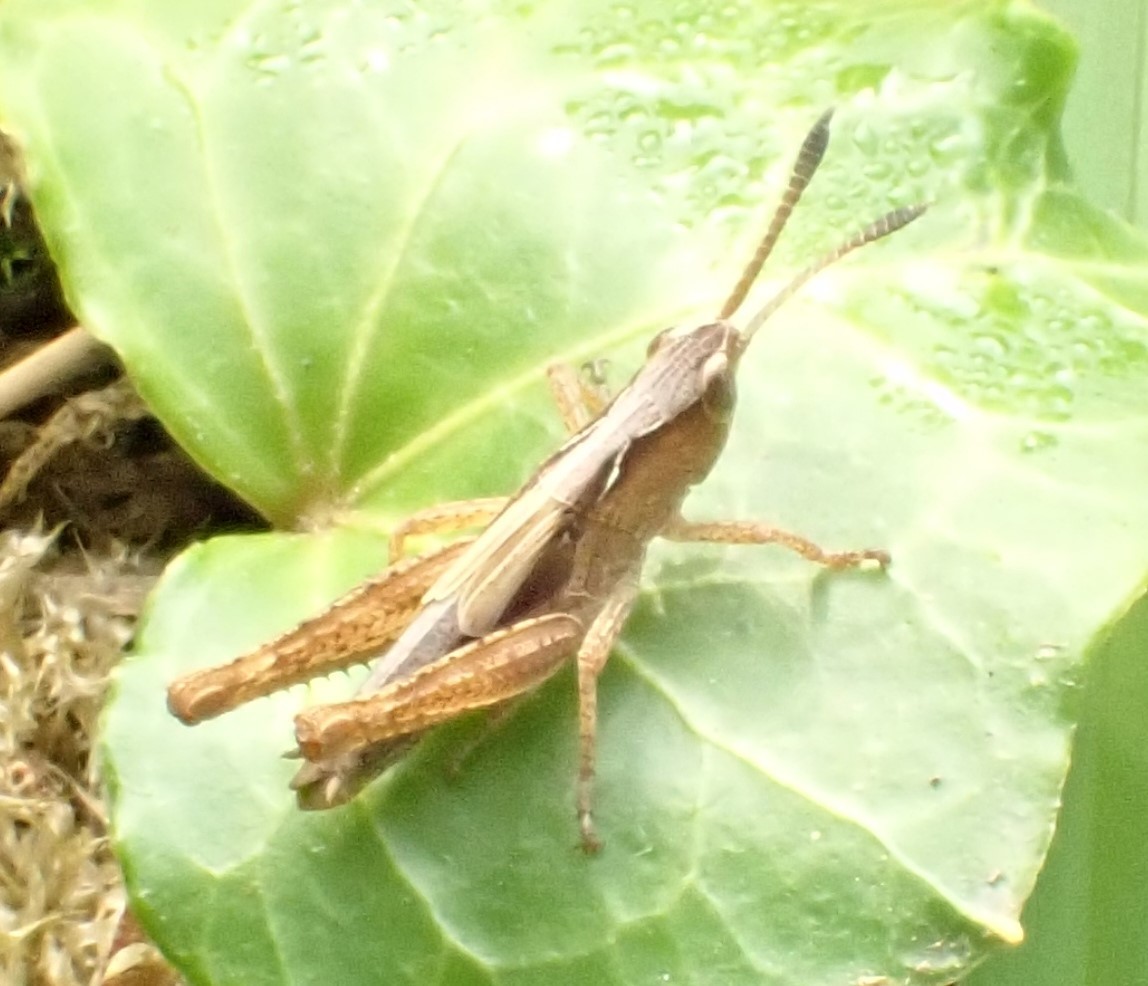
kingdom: Animalia
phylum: Arthropoda
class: Insecta
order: Orthoptera
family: Acrididae
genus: Gomphocerippus
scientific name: Gomphocerippus rufus
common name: Rufous grasshopper
